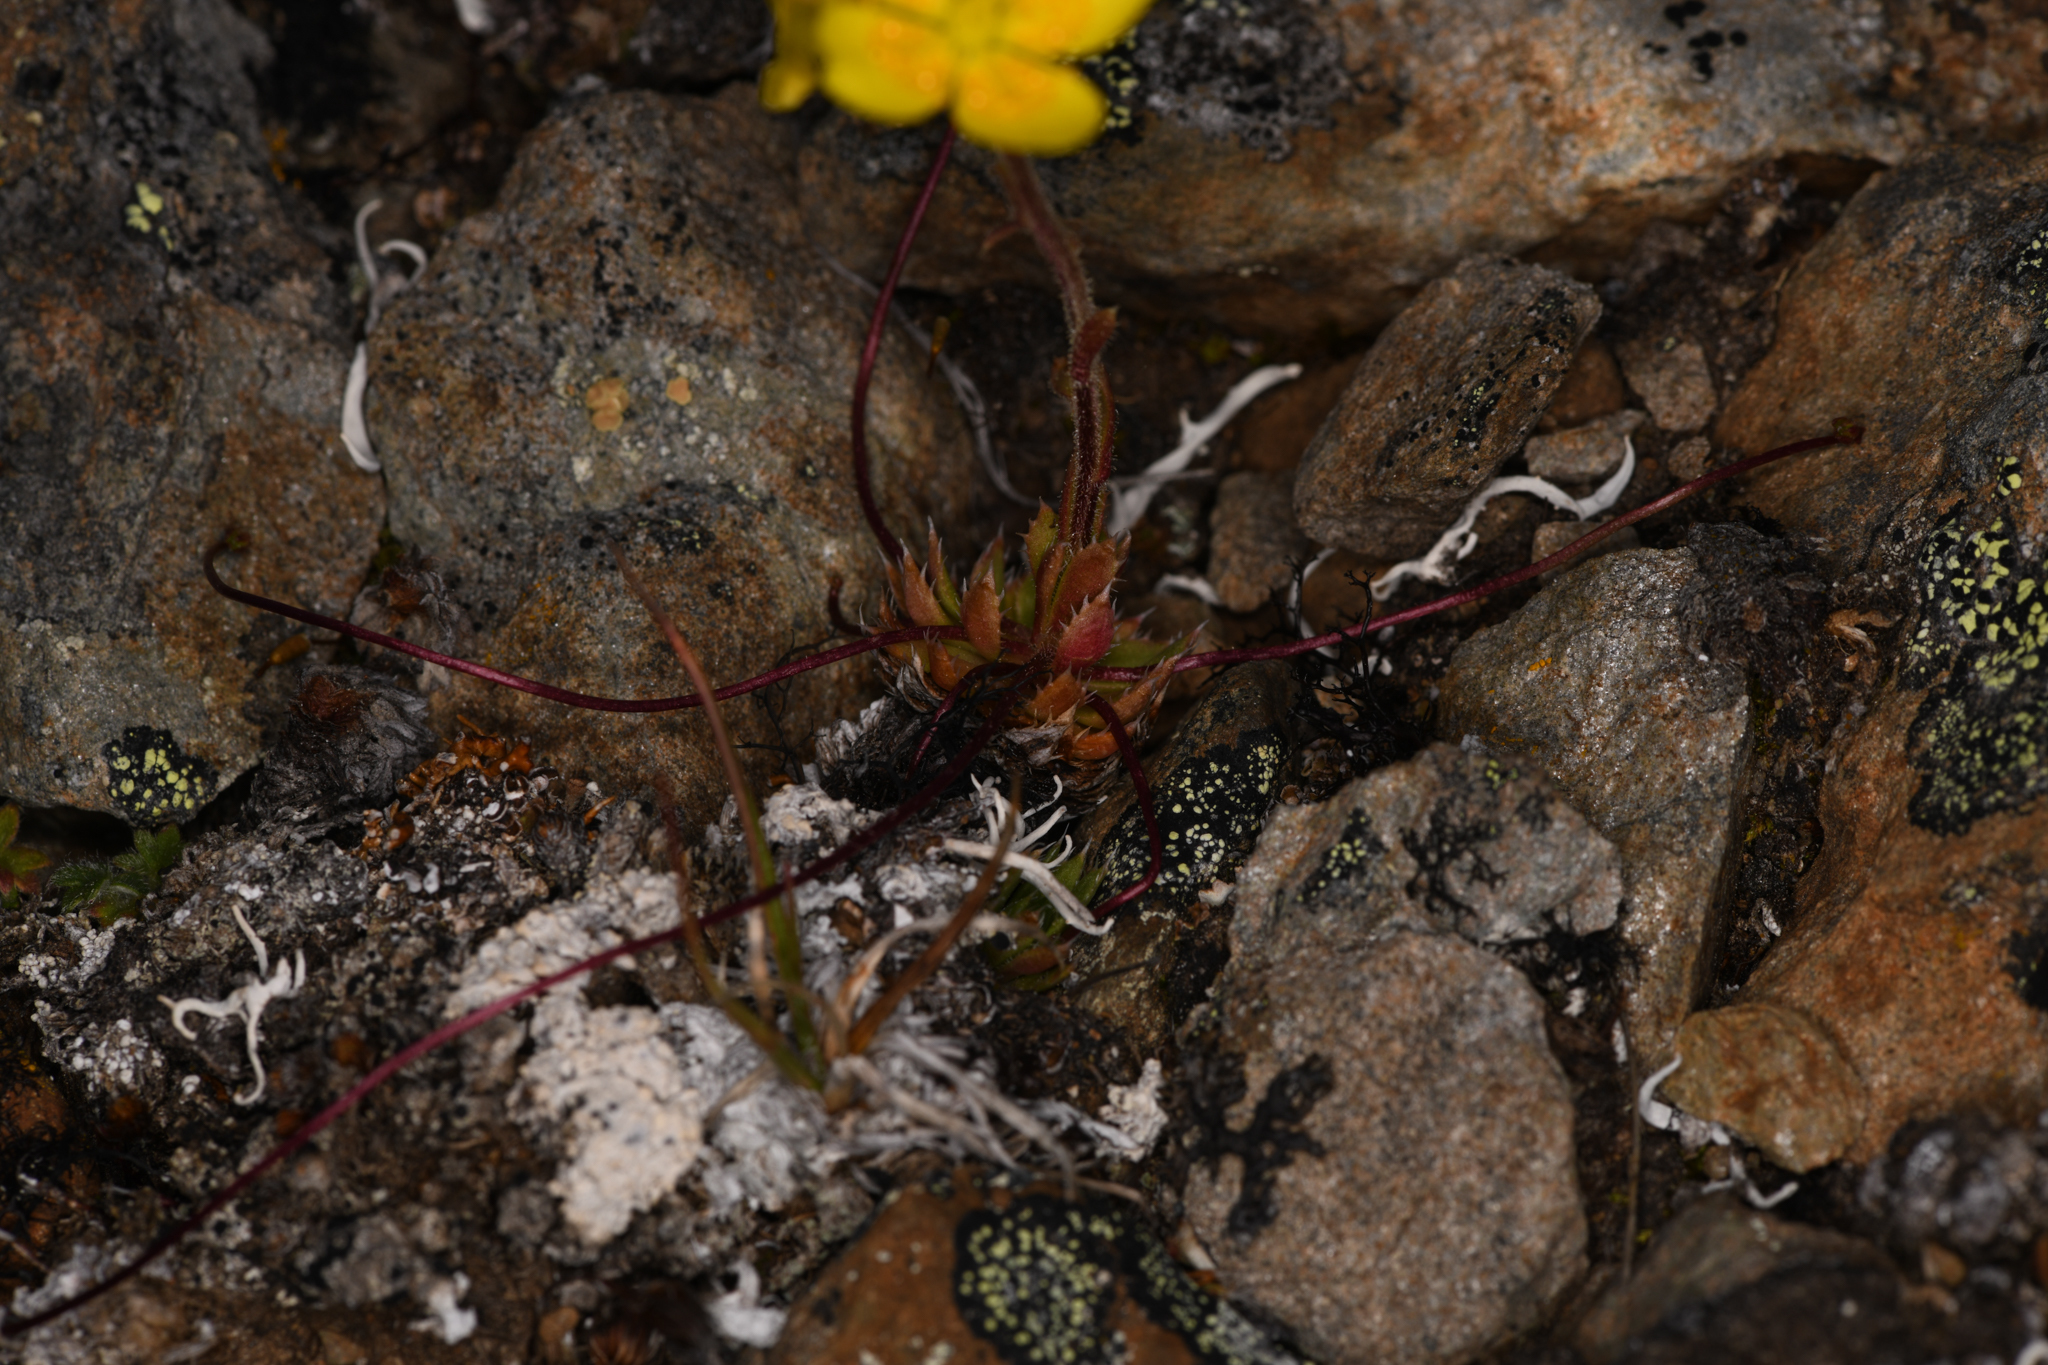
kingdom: Plantae
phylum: Tracheophyta
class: Magnoliopsida
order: Saxifragales
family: Saxifragaceae
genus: Saxifraga
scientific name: Saxifraga flagellaris
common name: Spider saxifrage
